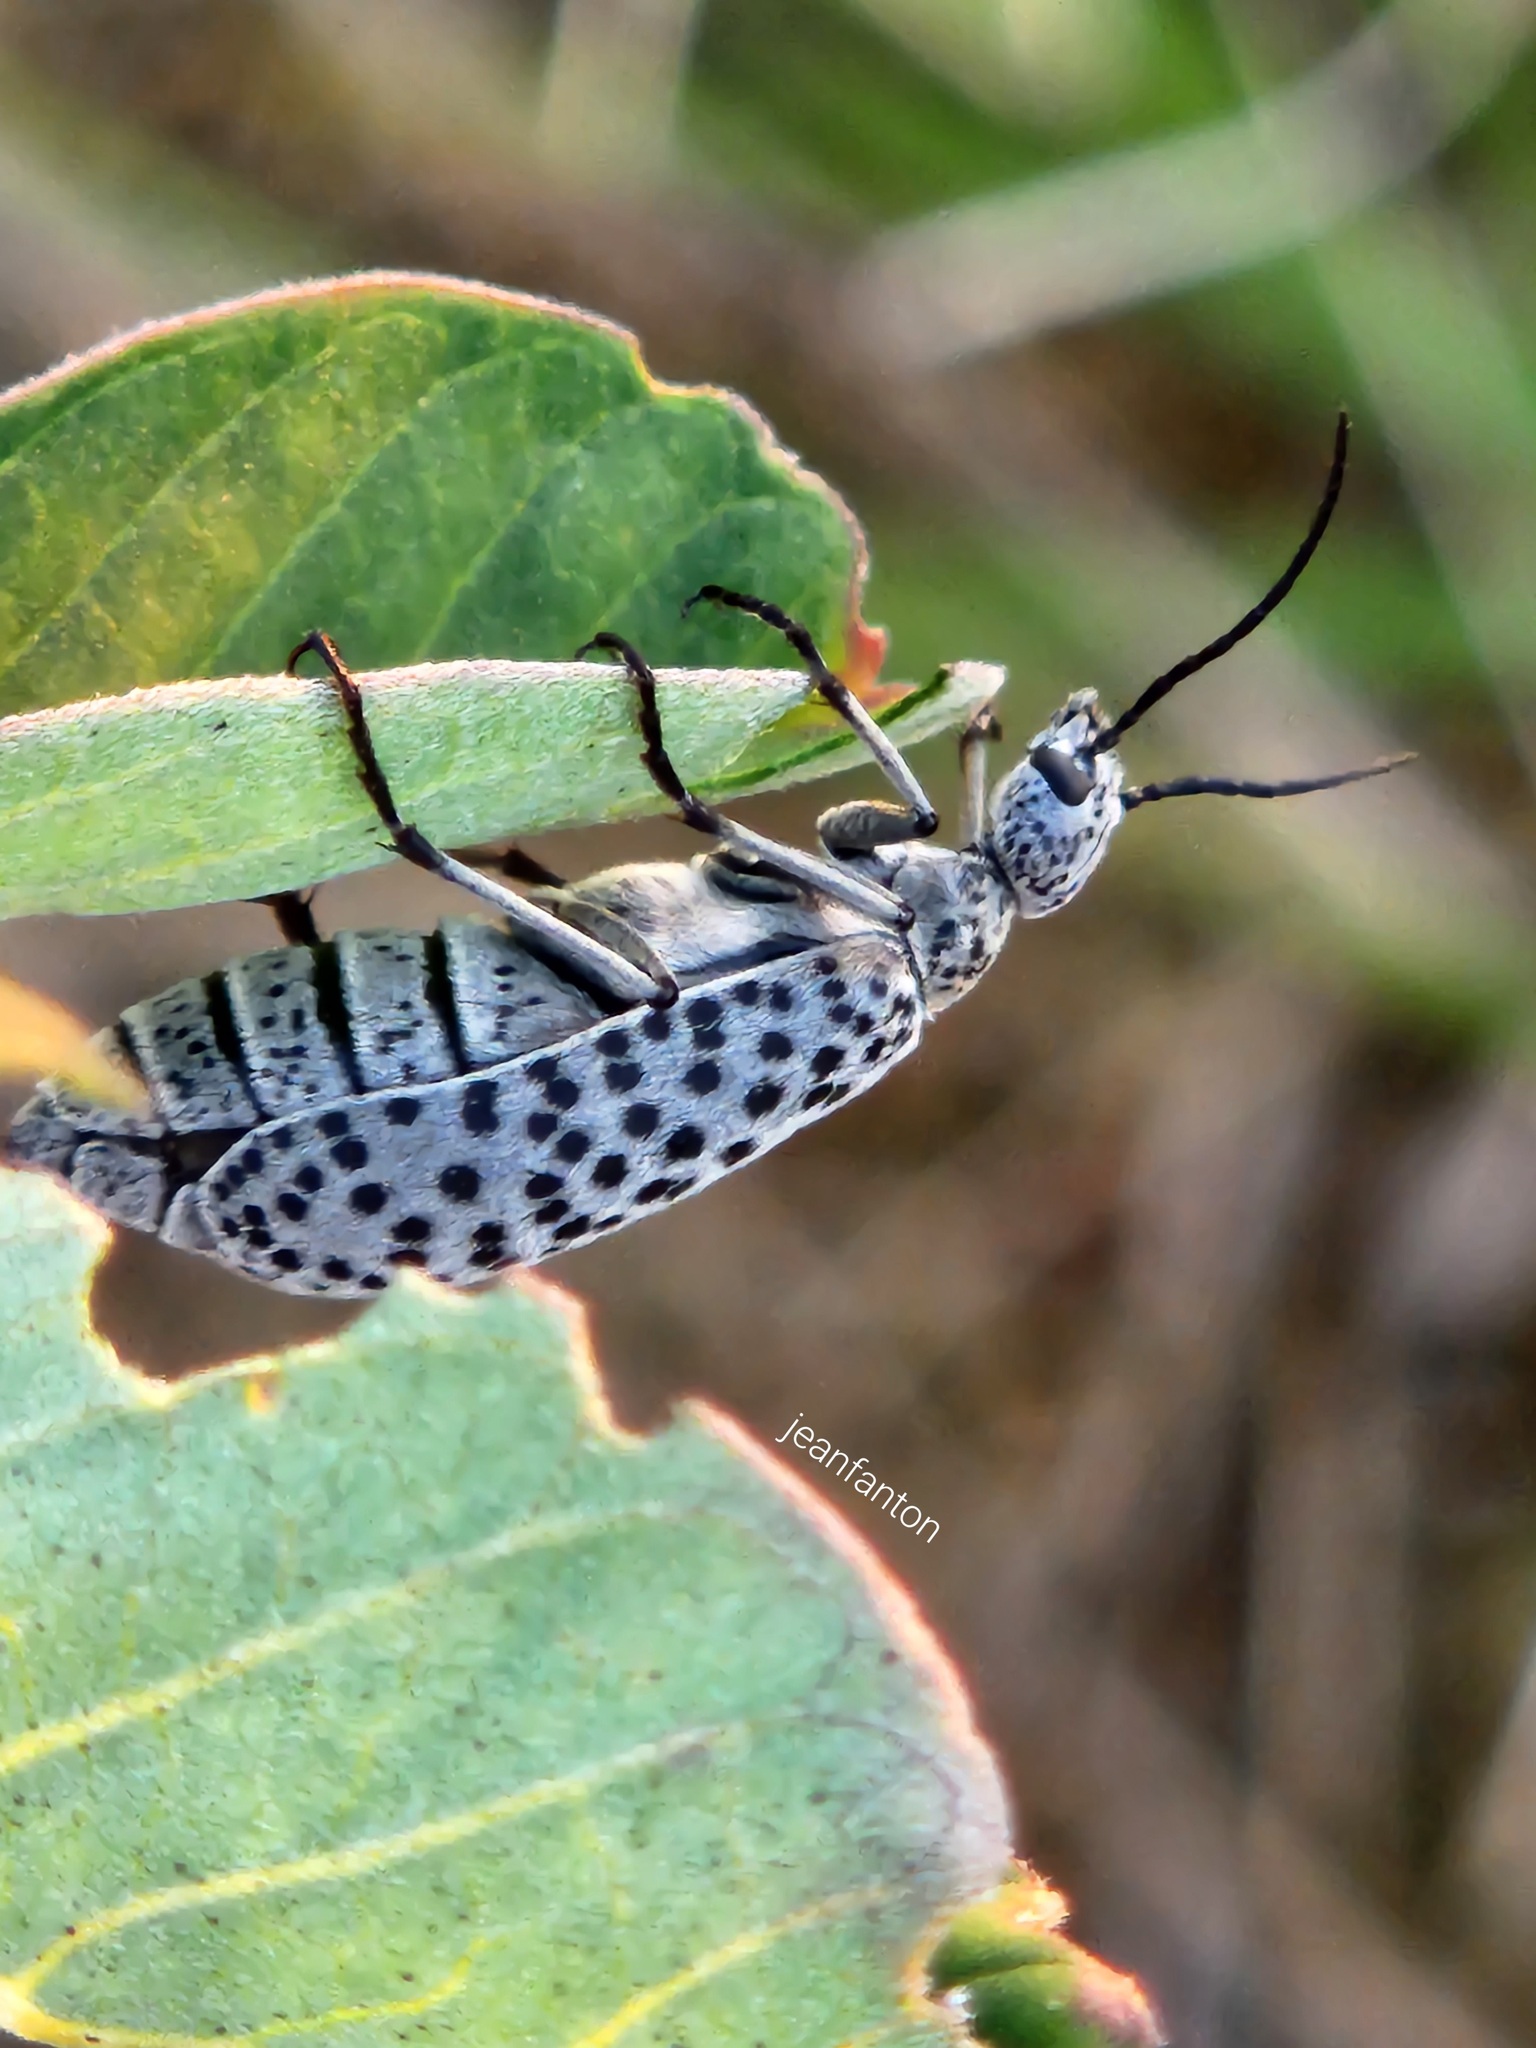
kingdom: Animalia
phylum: Arthropoda
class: Insecta
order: Coleoptera
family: Meloidae
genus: Epicauta
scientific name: Epicauta
